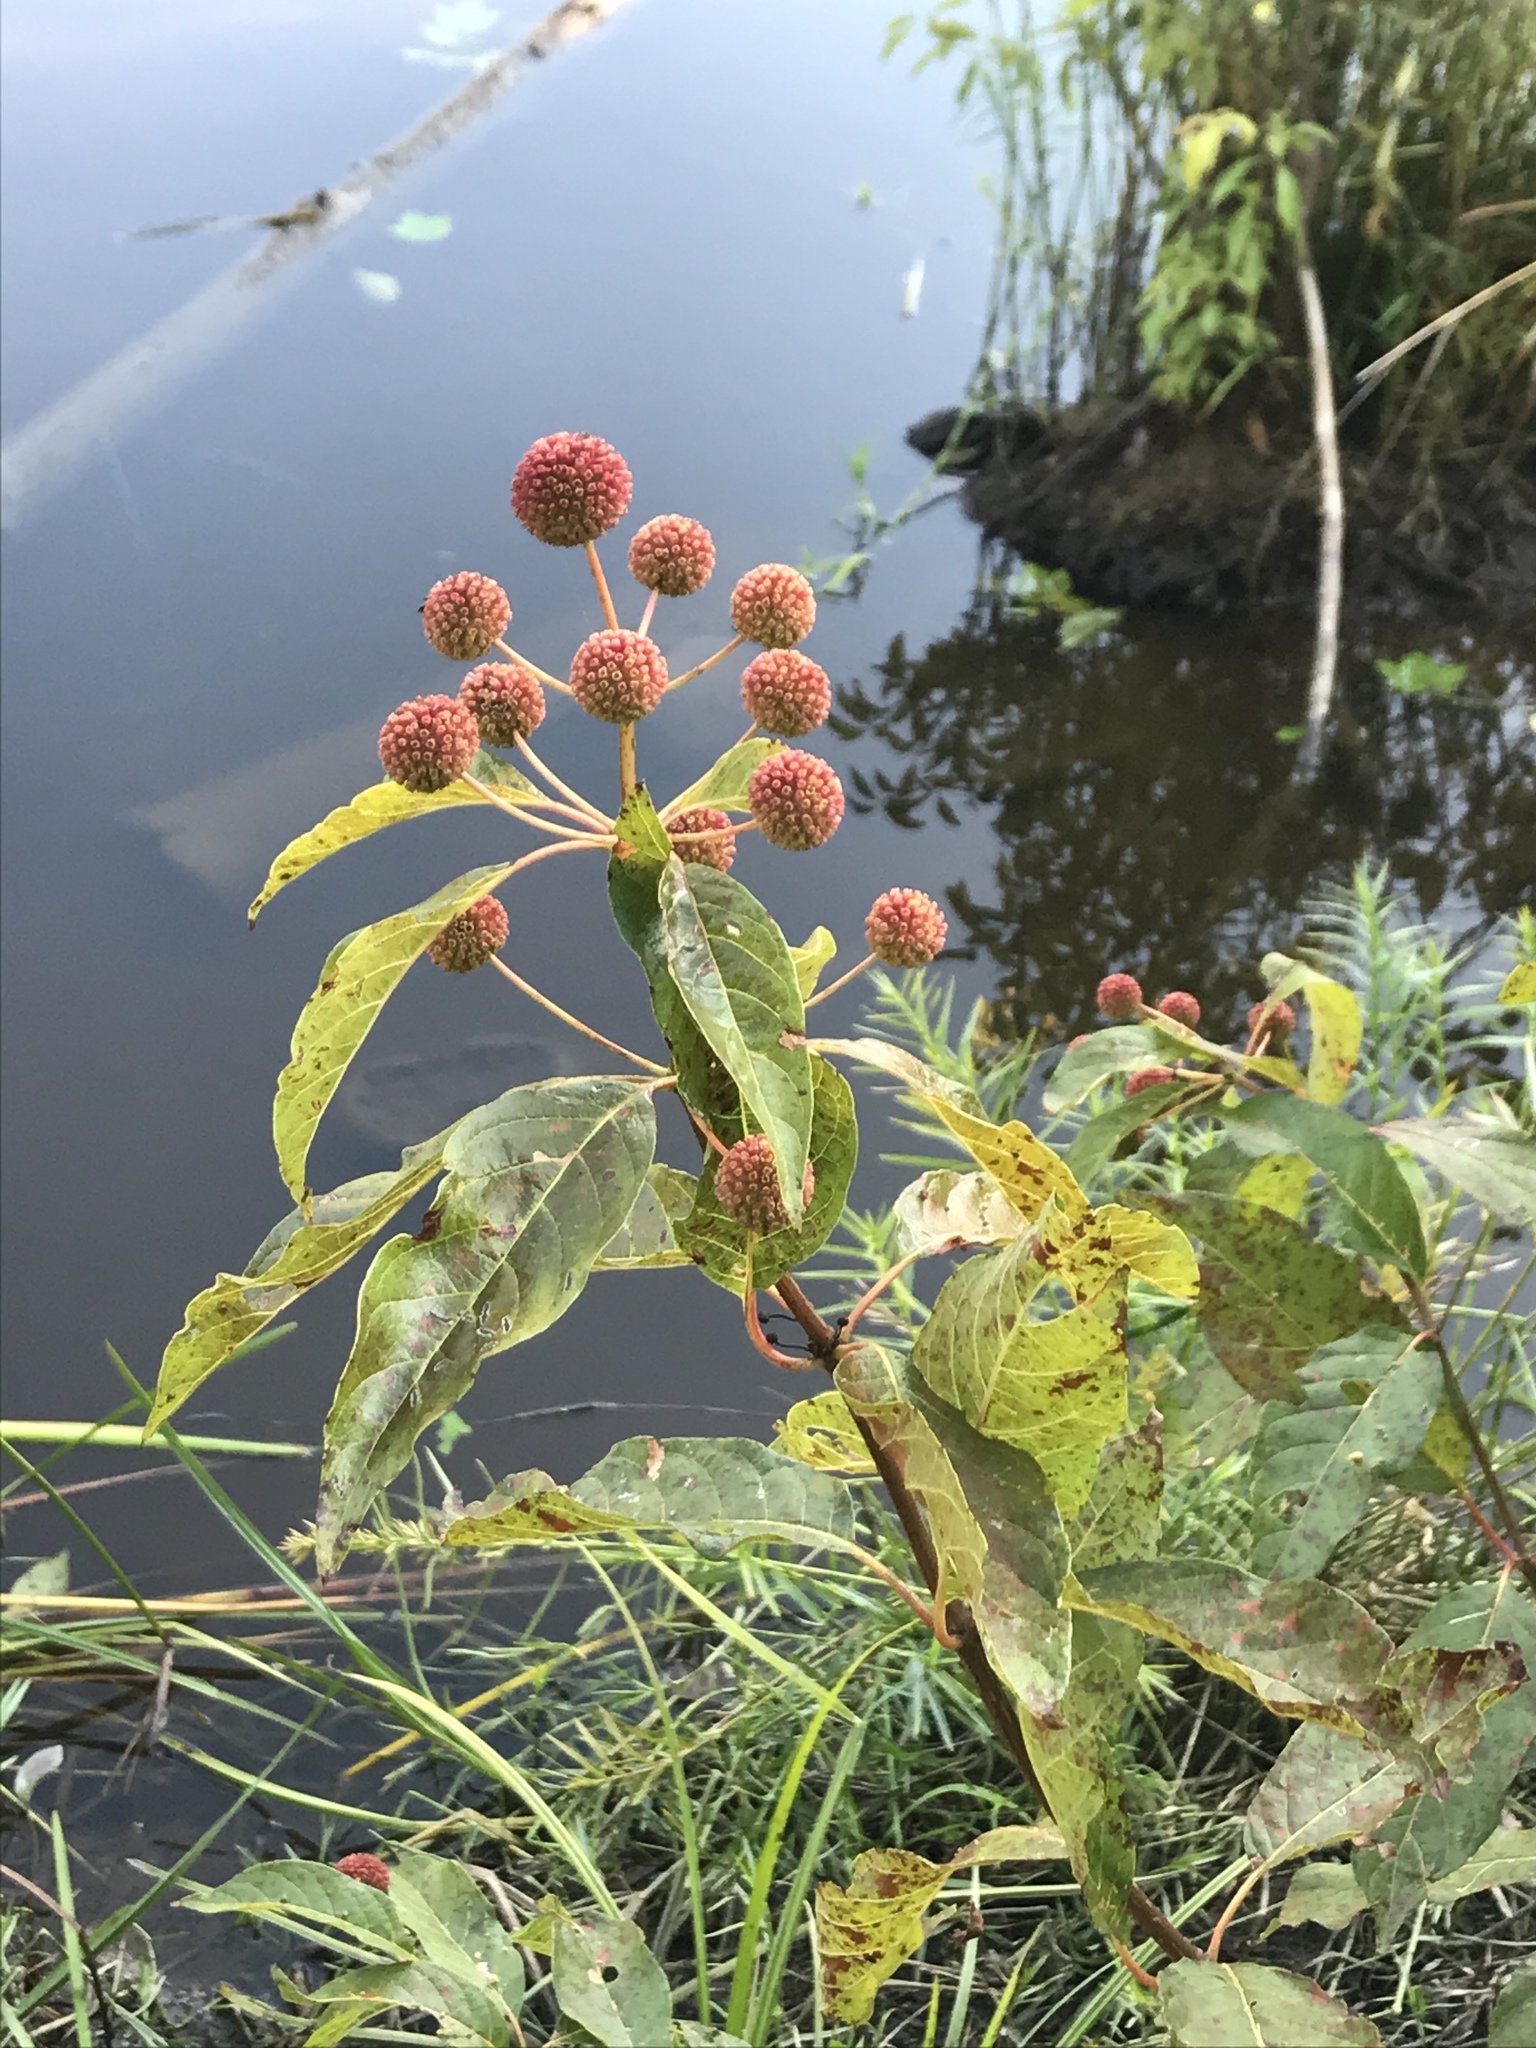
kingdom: Plantae
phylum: Tracheophyta
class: Magnoliopsida
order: Gentianales
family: Rubiaceae
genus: Cephalanthus
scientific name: Cephalanthus occidentalis
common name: Button-willow
